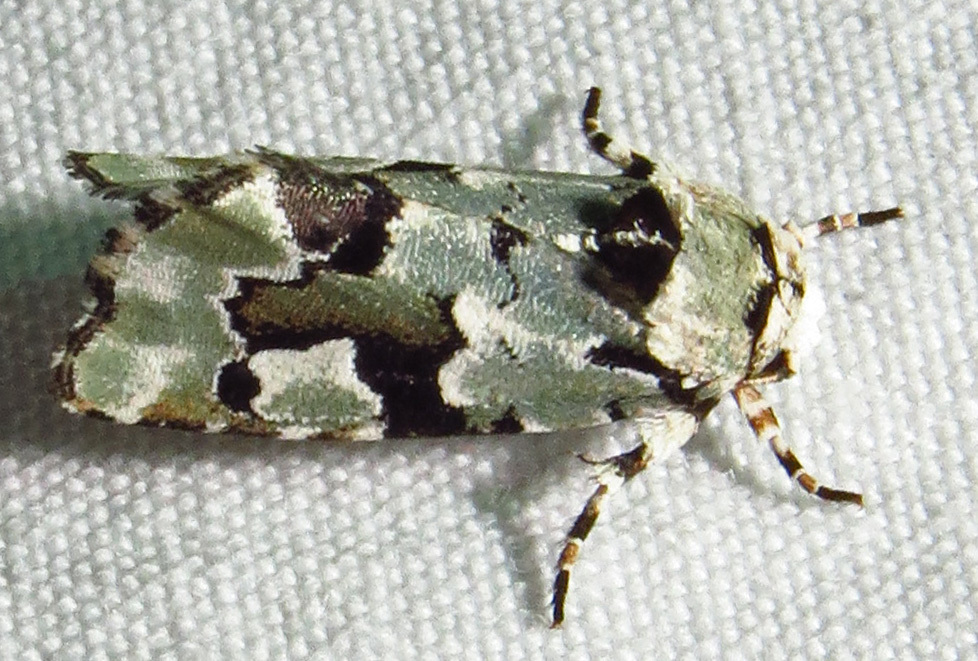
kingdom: Animalia
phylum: Arthropoda
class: Insecta
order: Lepidoptera
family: Noctuidae
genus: Emarginea
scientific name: Emarginea percara
